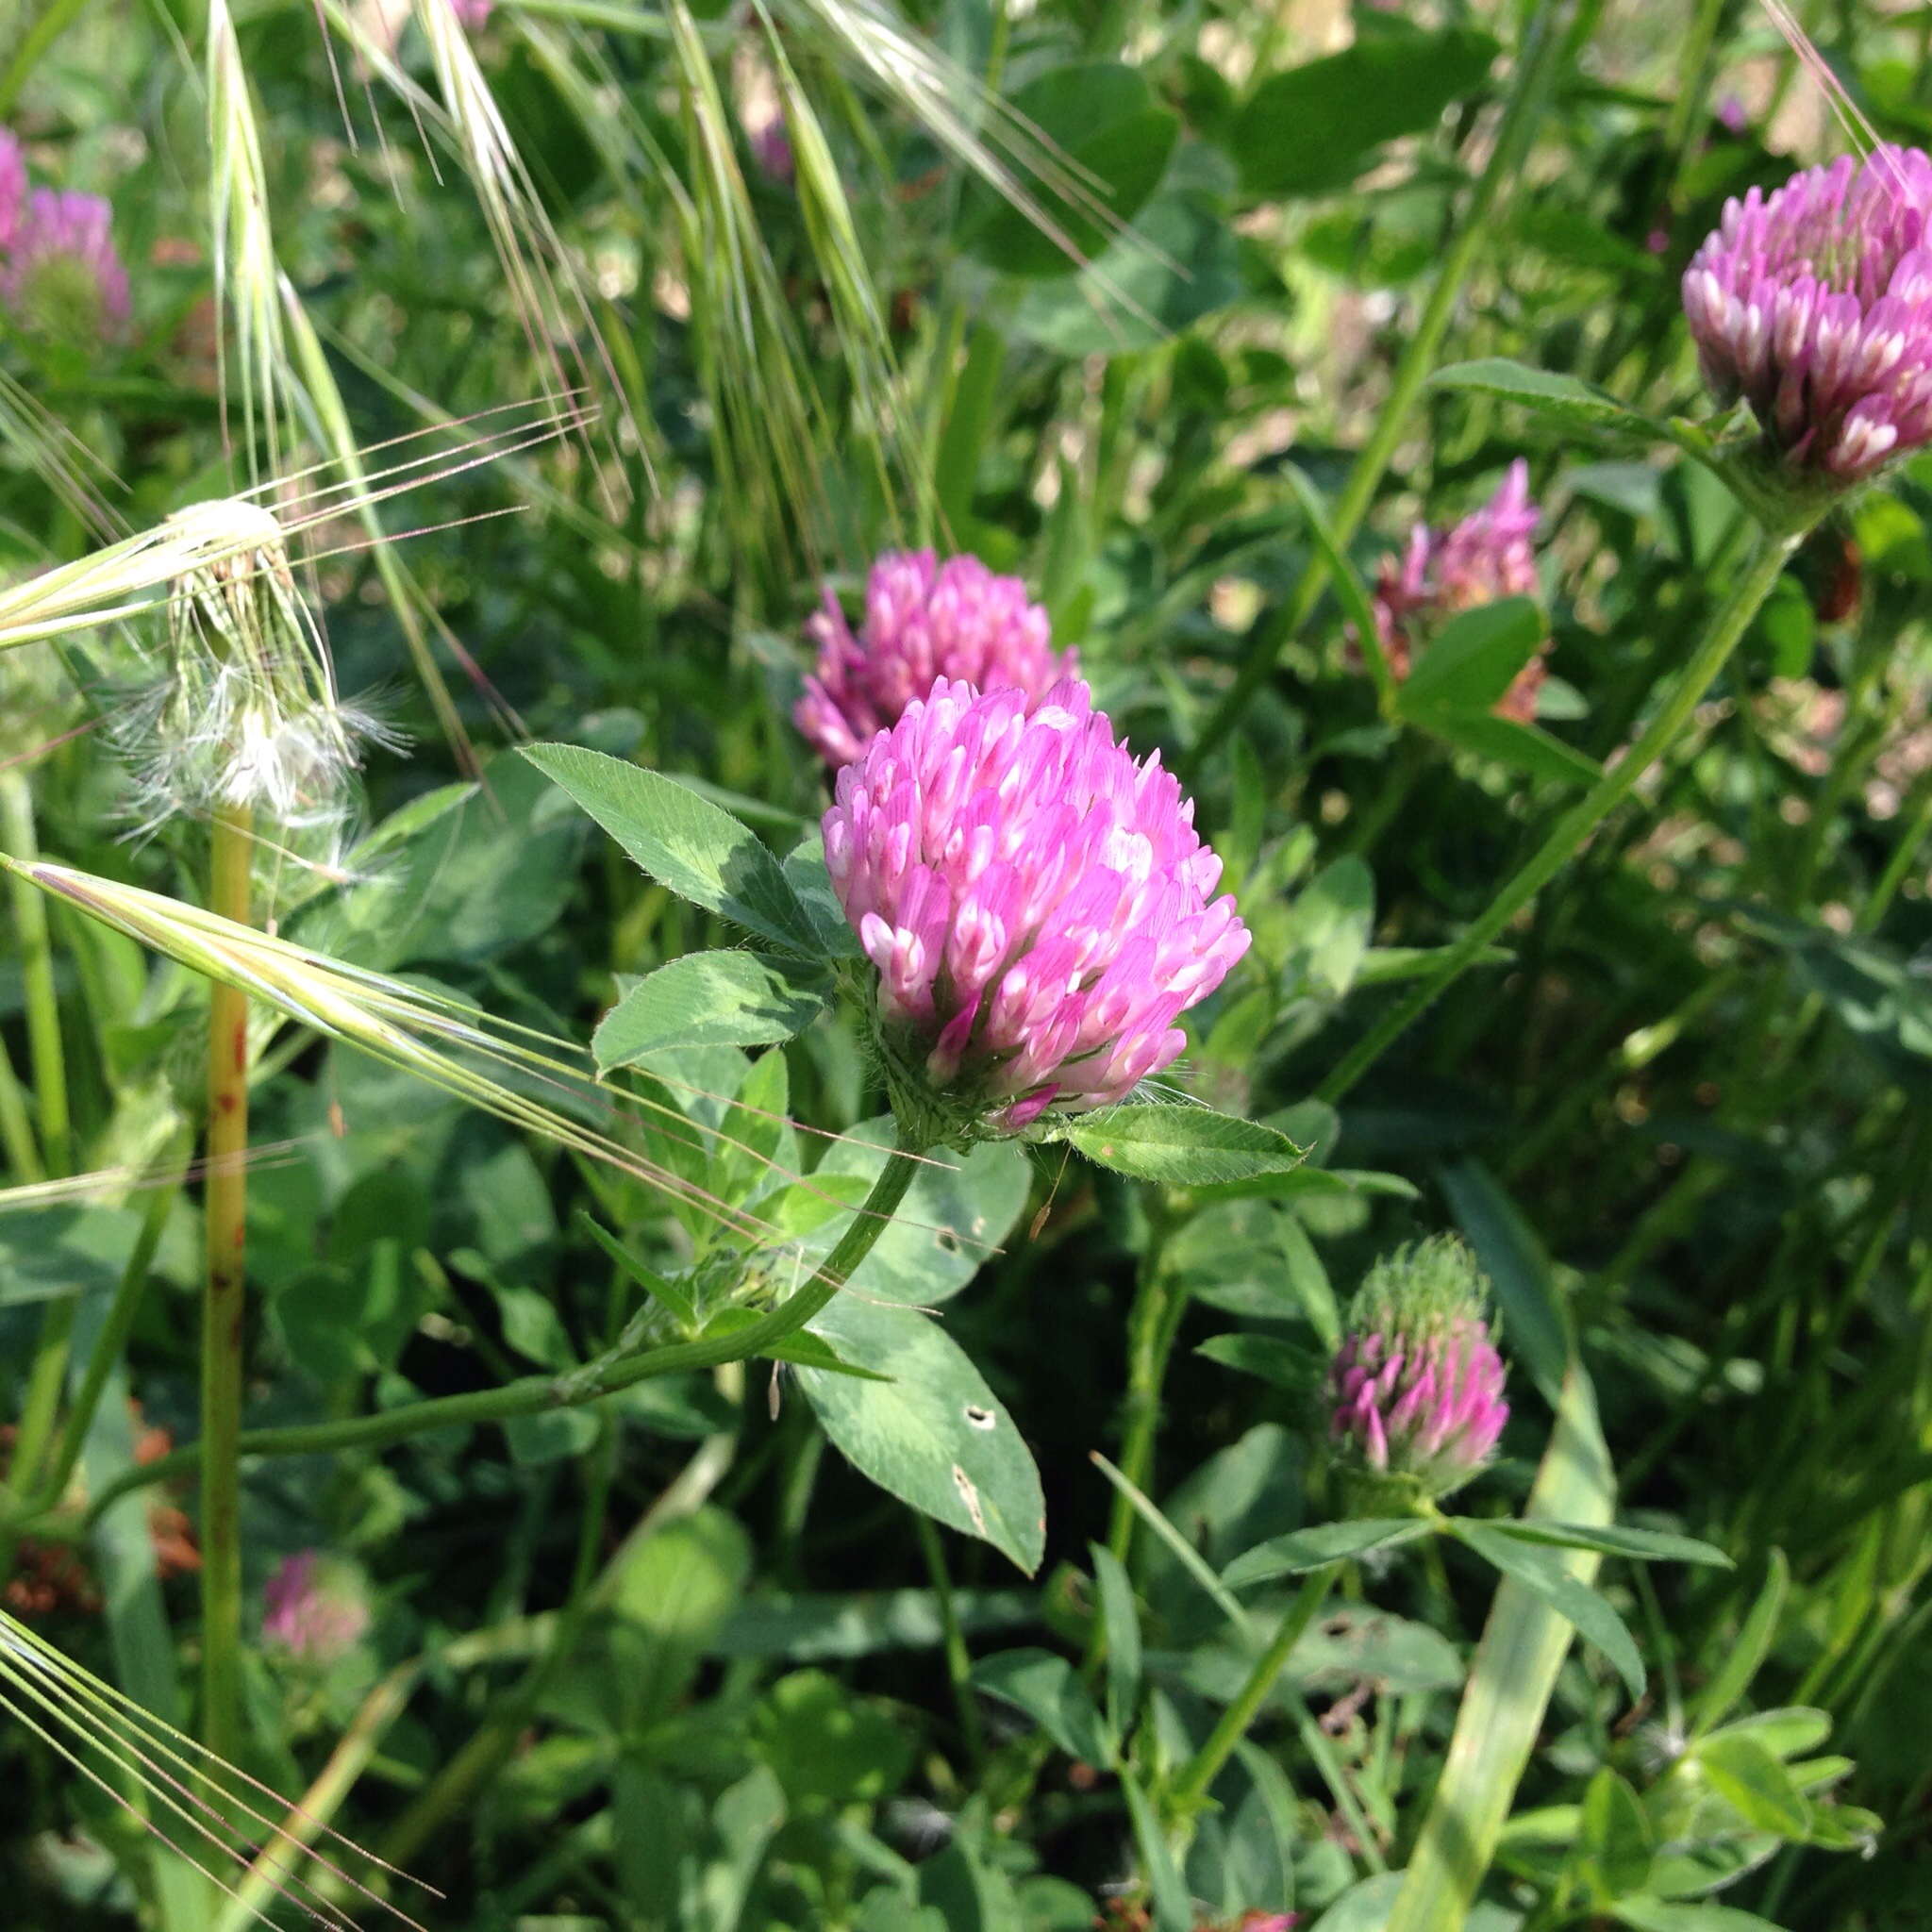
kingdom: Plantae
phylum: Tracheophyta
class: Magnoliopsida
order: Fabales
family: Fabaceae
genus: Trifolium
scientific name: Trifolium pratense
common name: Red clover
